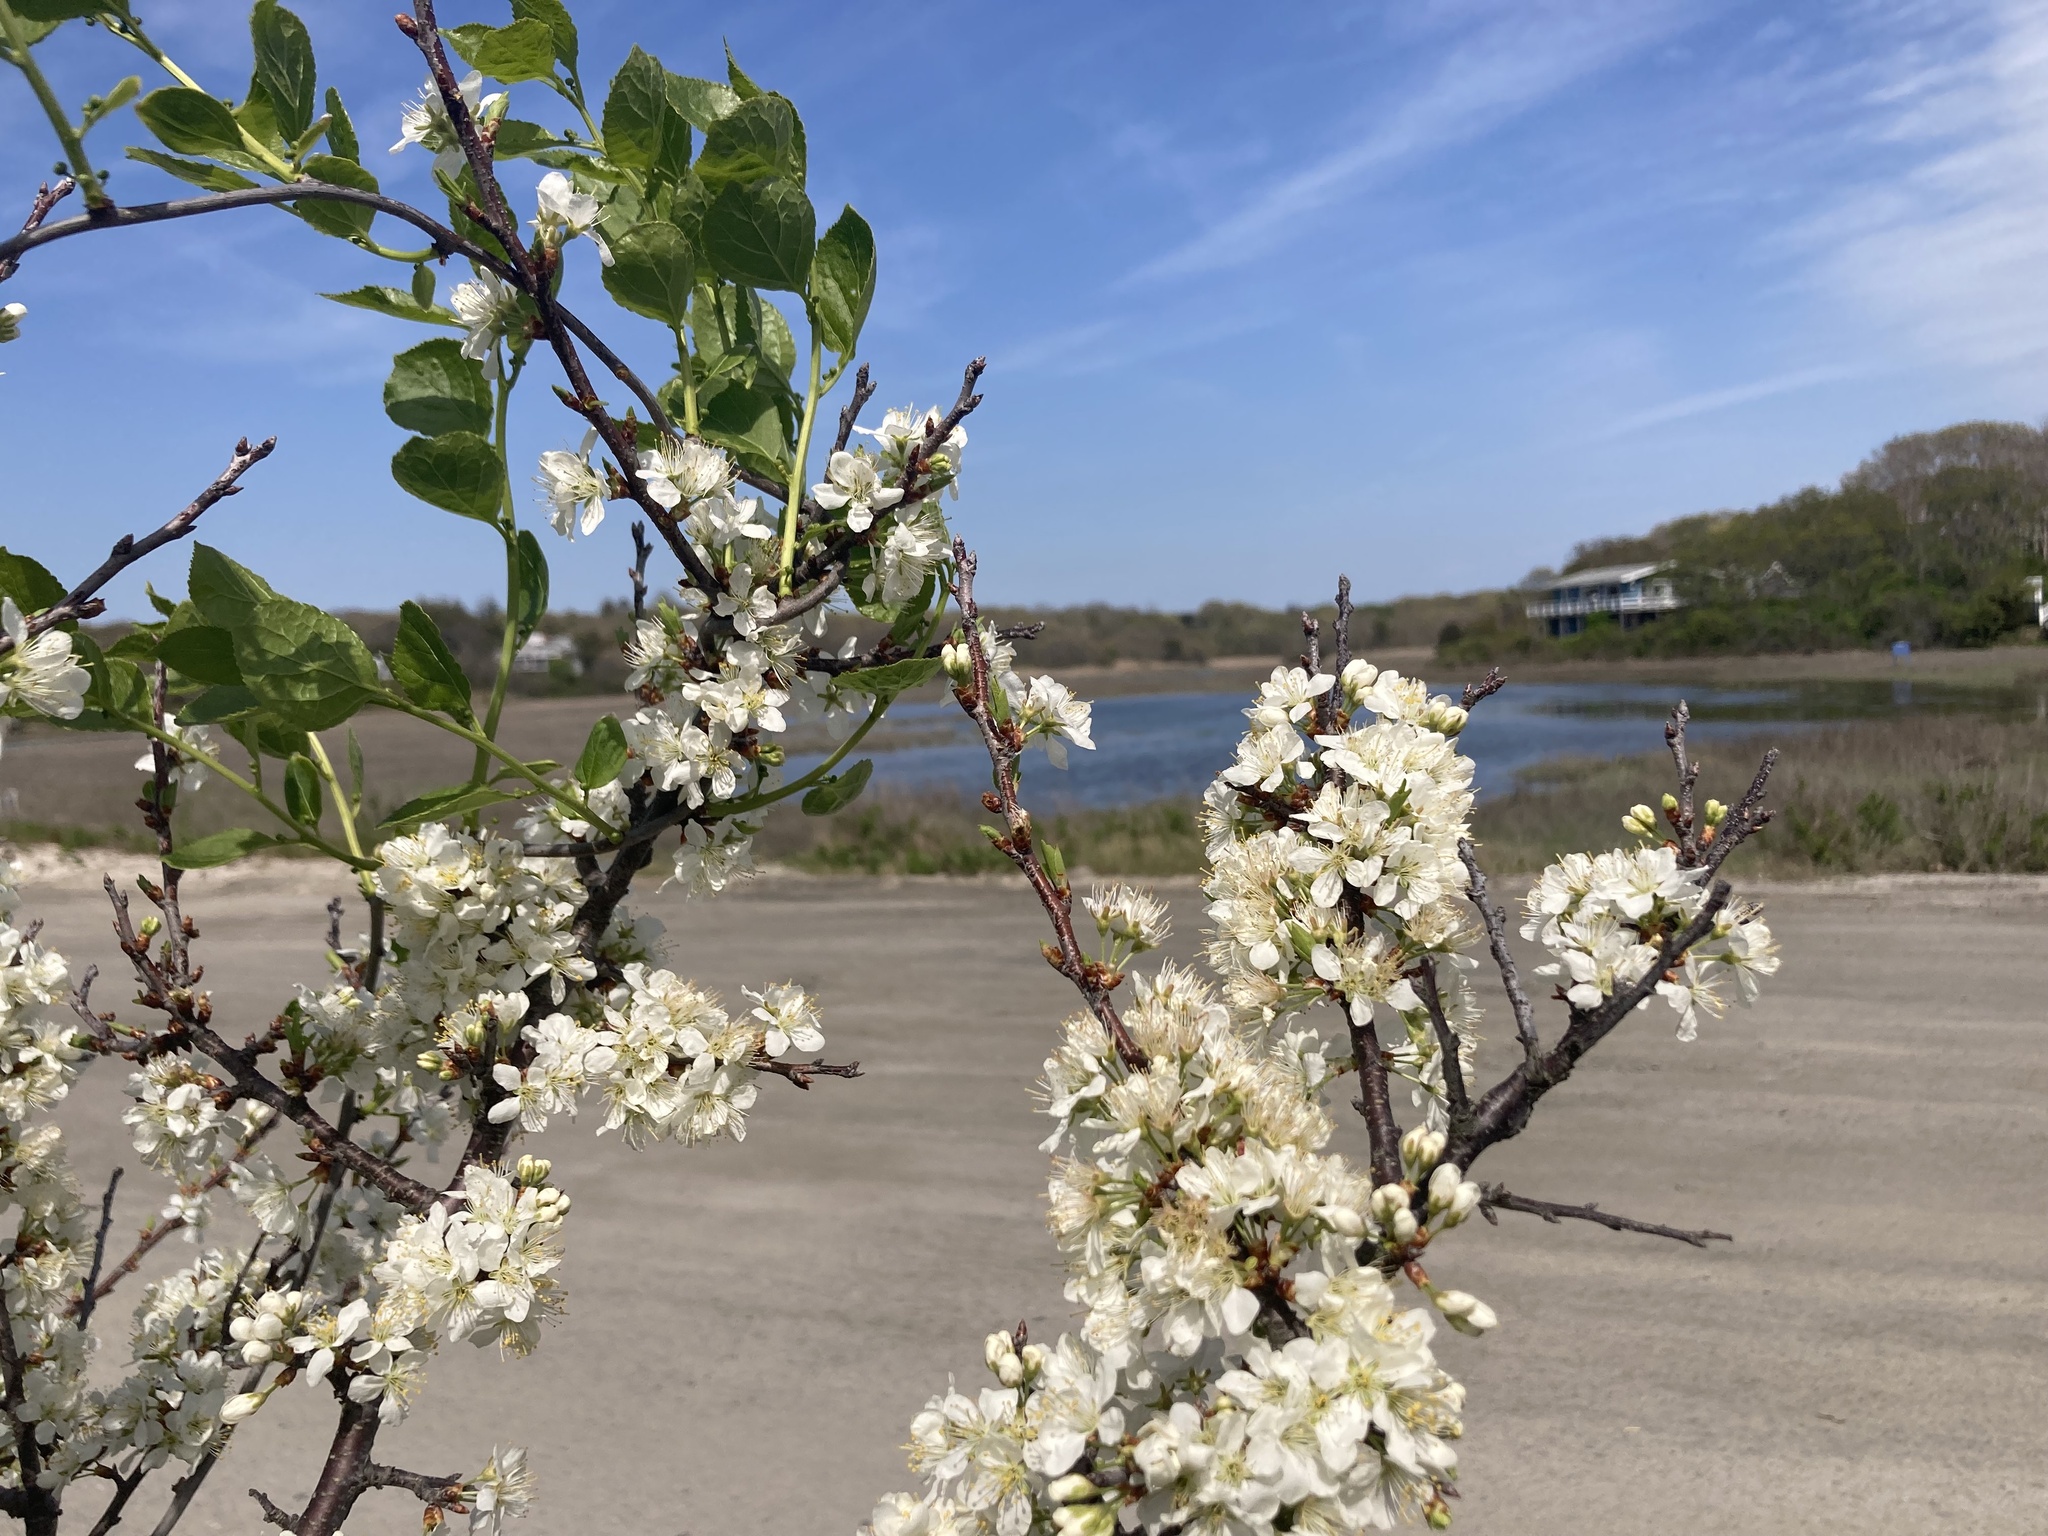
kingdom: Plantae
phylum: Tracheophyta
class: Magnoliopsida
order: Rosales
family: Rosaceae
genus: Prunus
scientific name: Prunus maritima
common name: Beach plum
